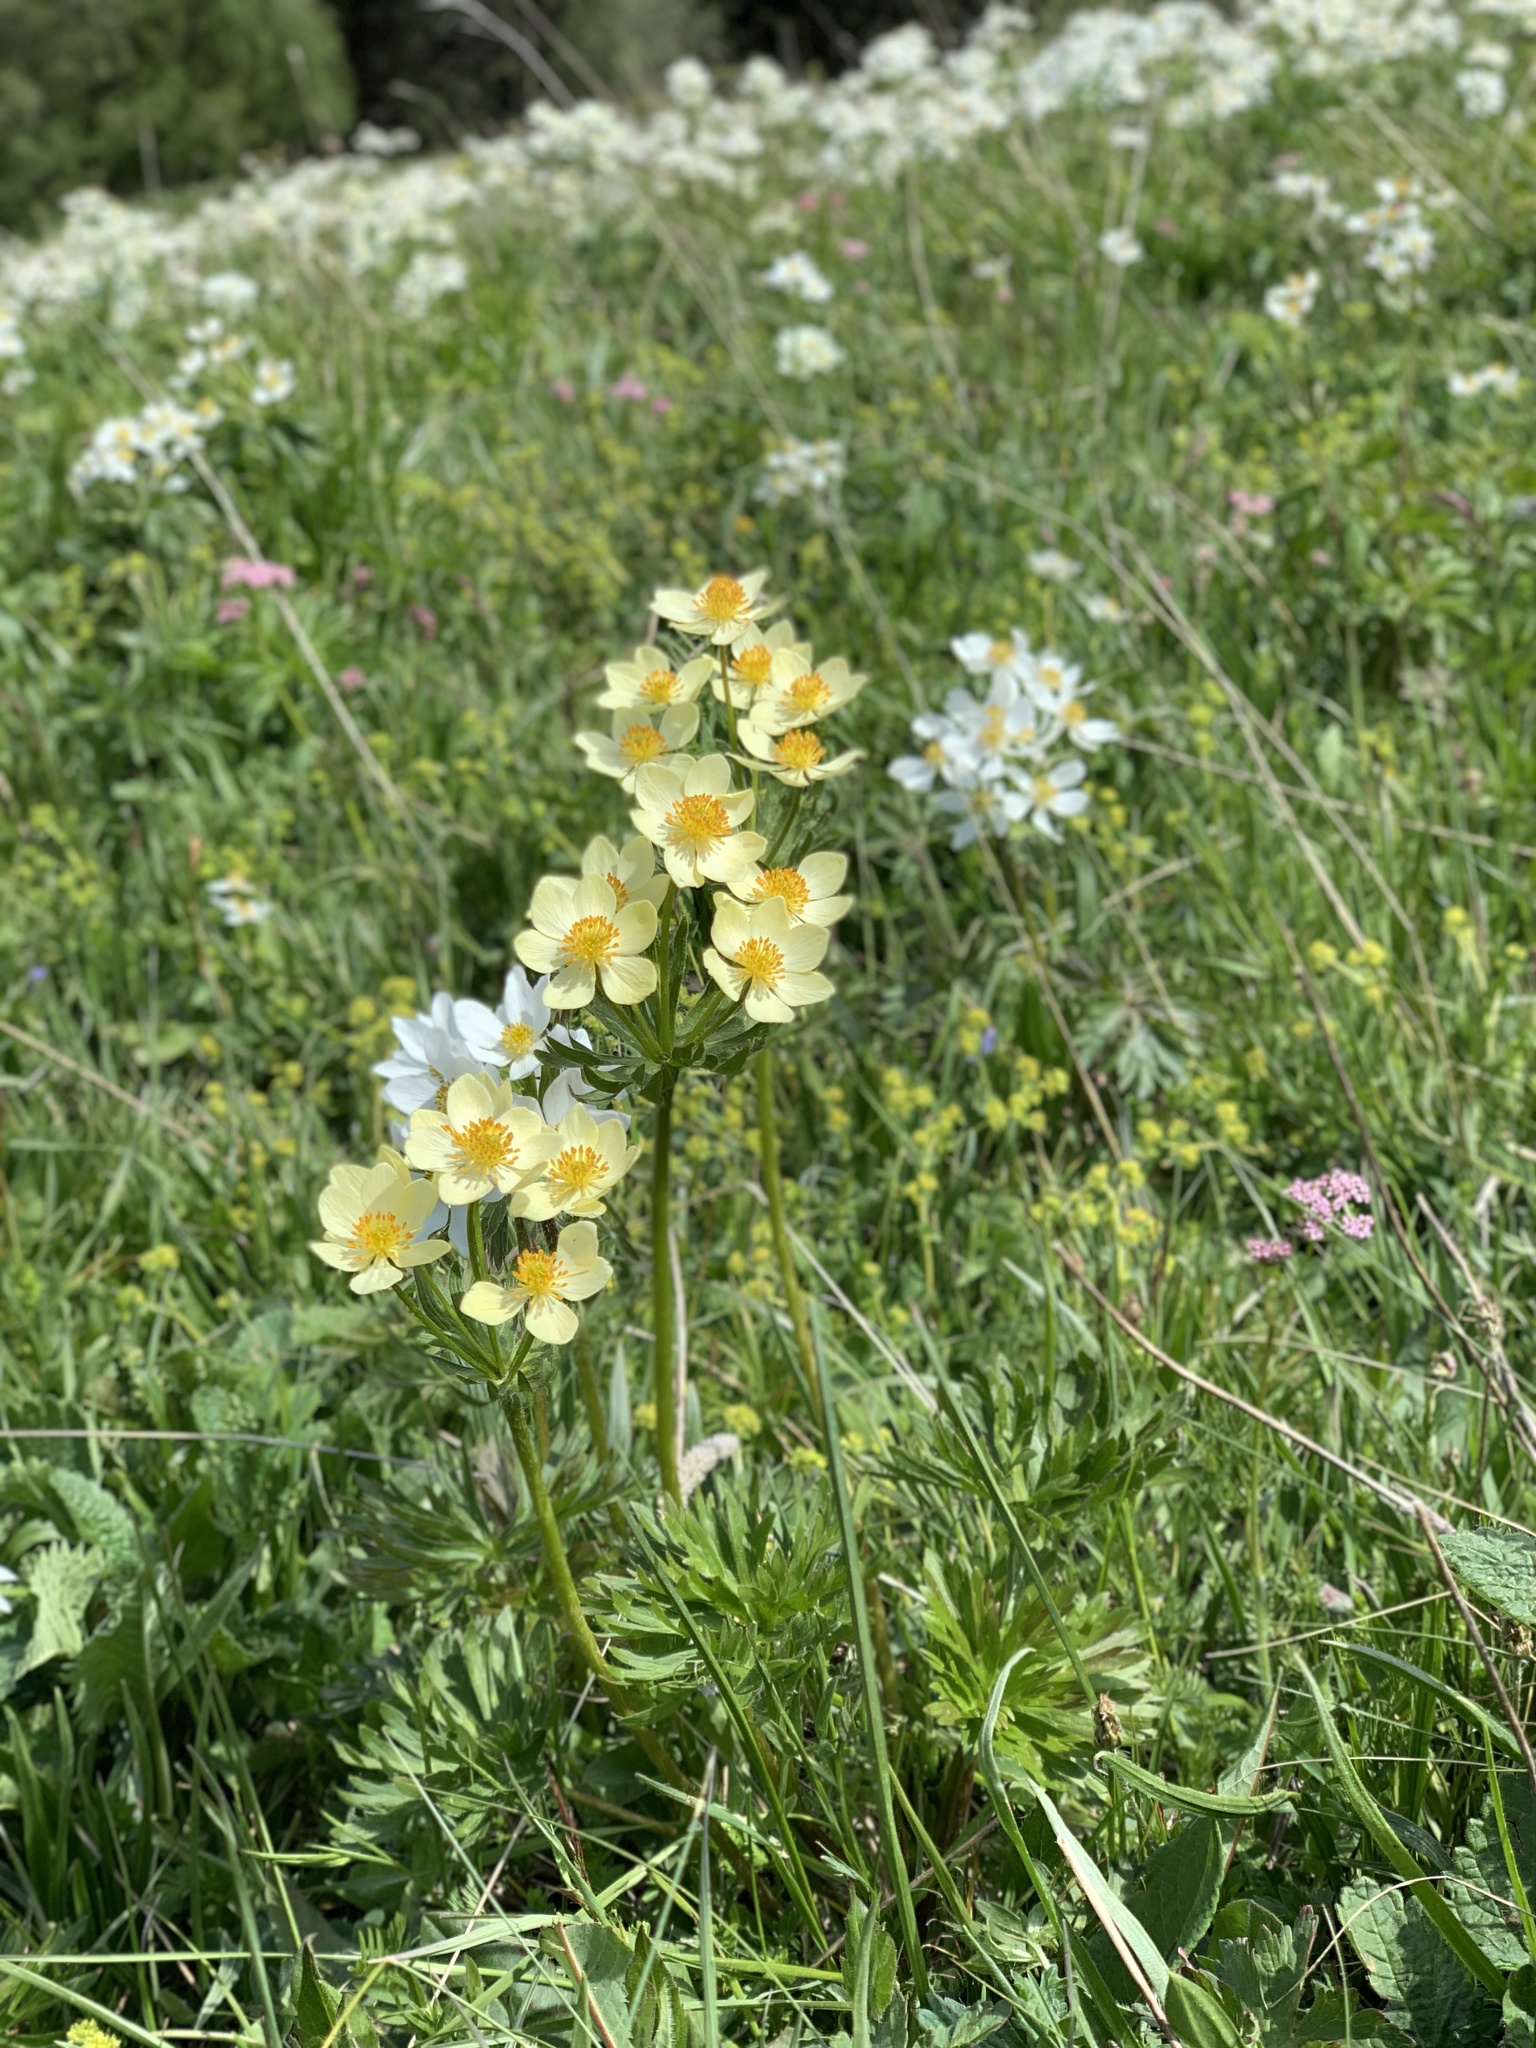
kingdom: Plantae
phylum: Tracheophyta
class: Magnoliopsida
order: Ranunculales
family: Ranunculaceae
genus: Anemonastrum
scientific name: Anemonastrum narcissiflorum
